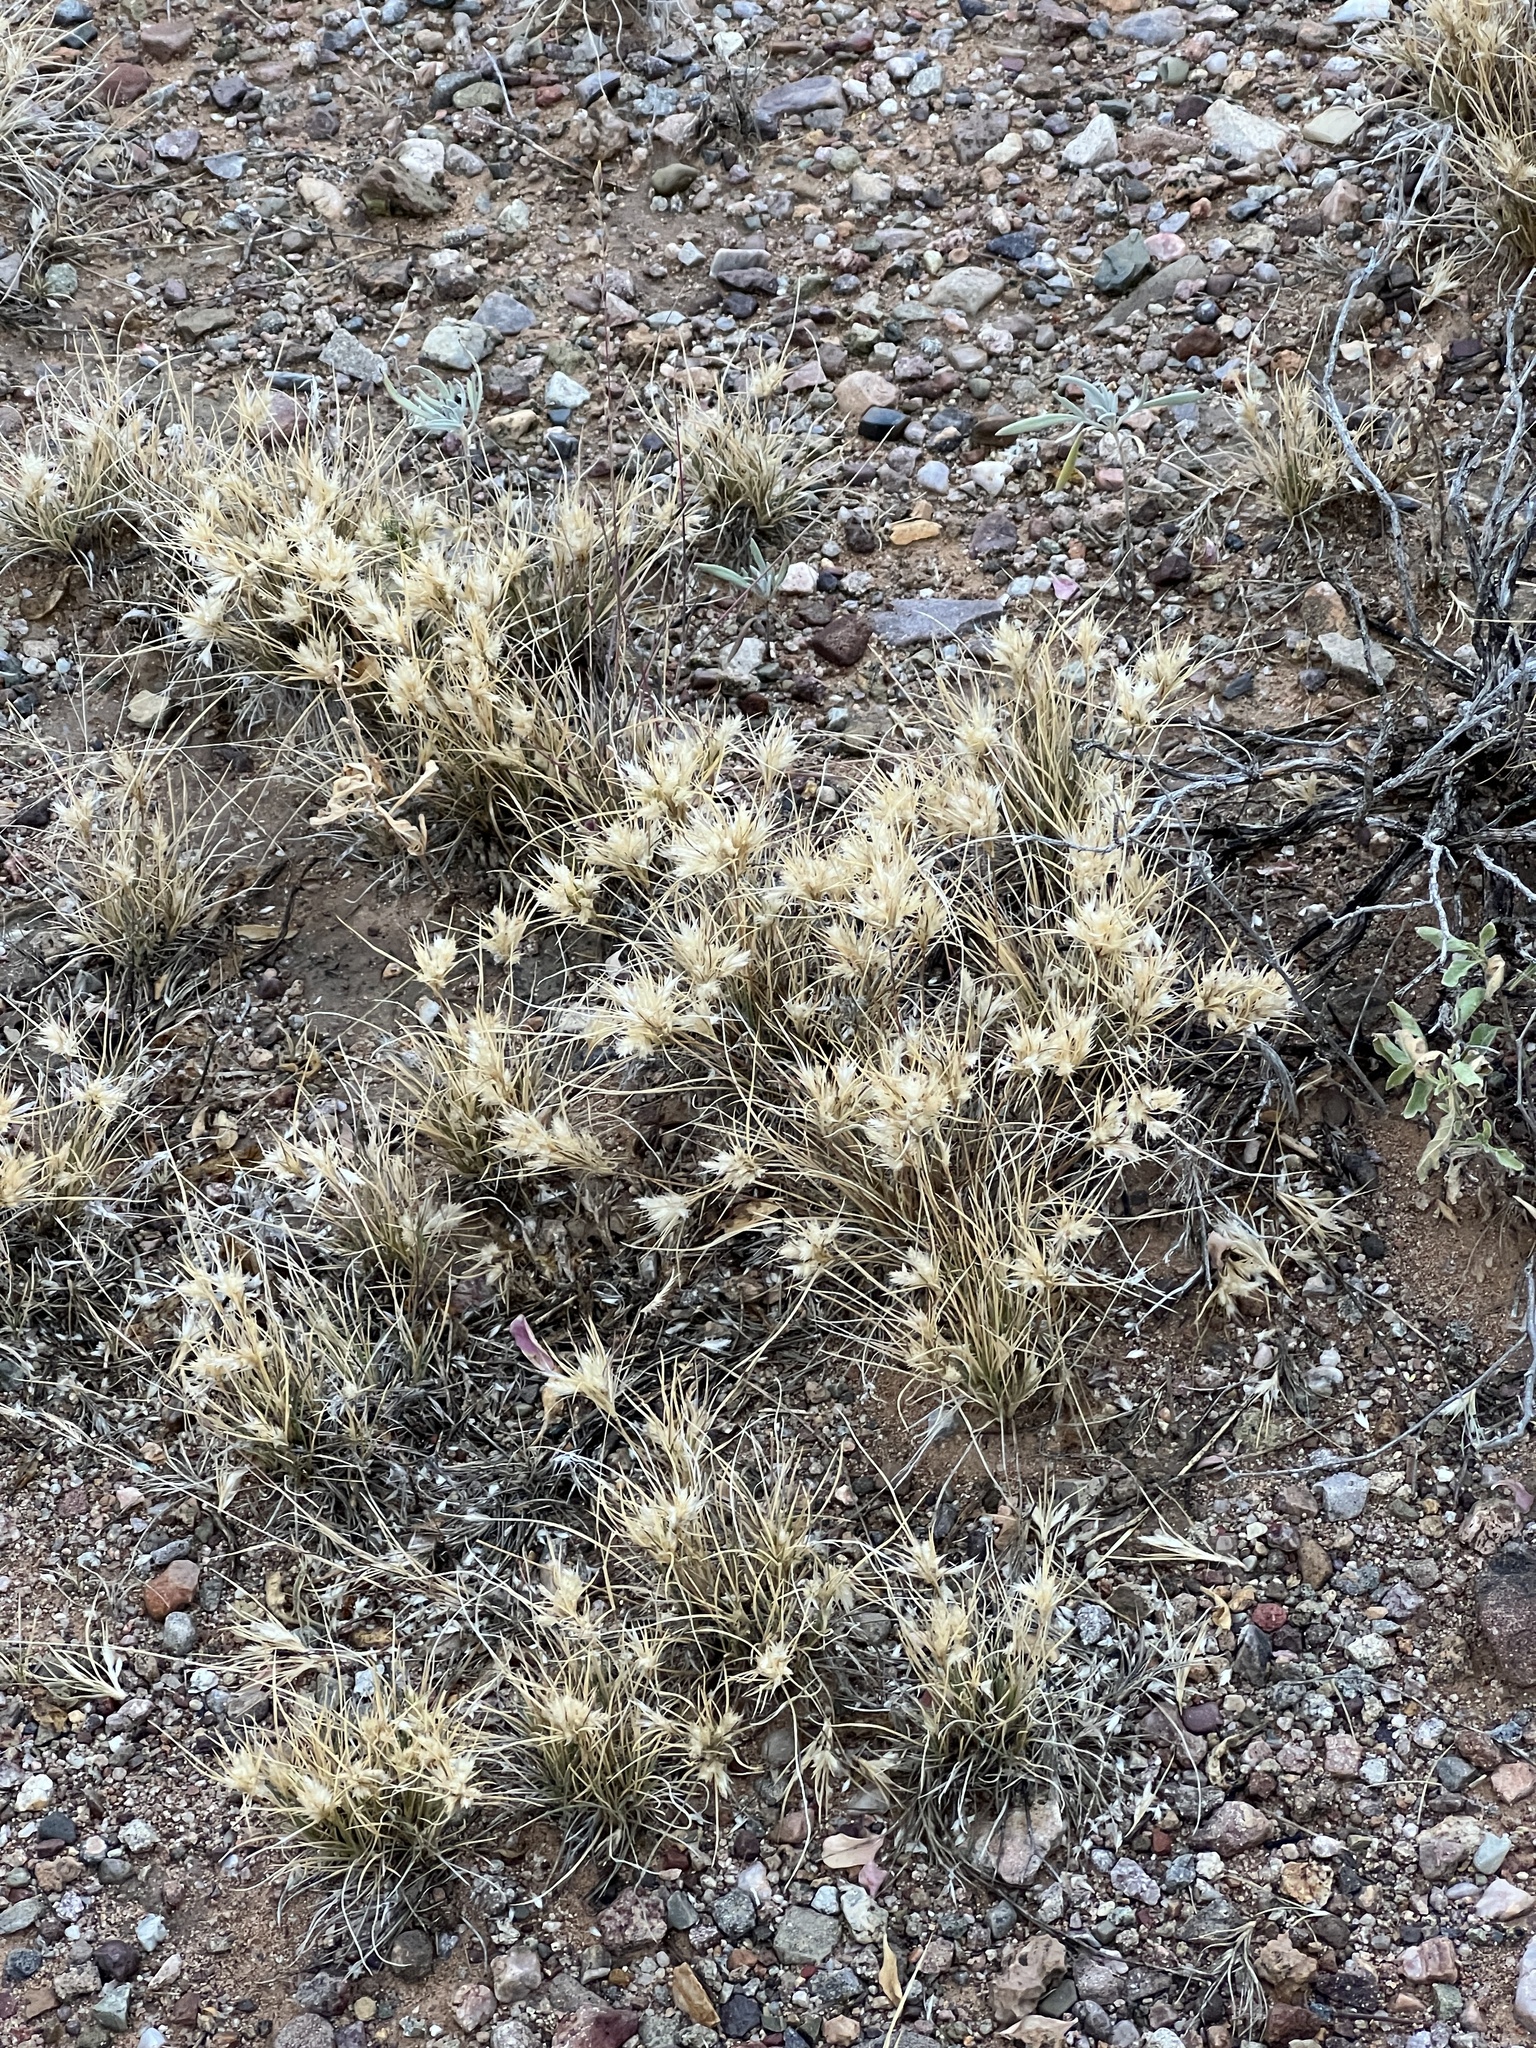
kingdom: Plantae
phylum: Tracheophyta
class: Liliopsida
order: Poales
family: Poaceae
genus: Dasyochloa
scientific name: Dasyochloa pulchella
